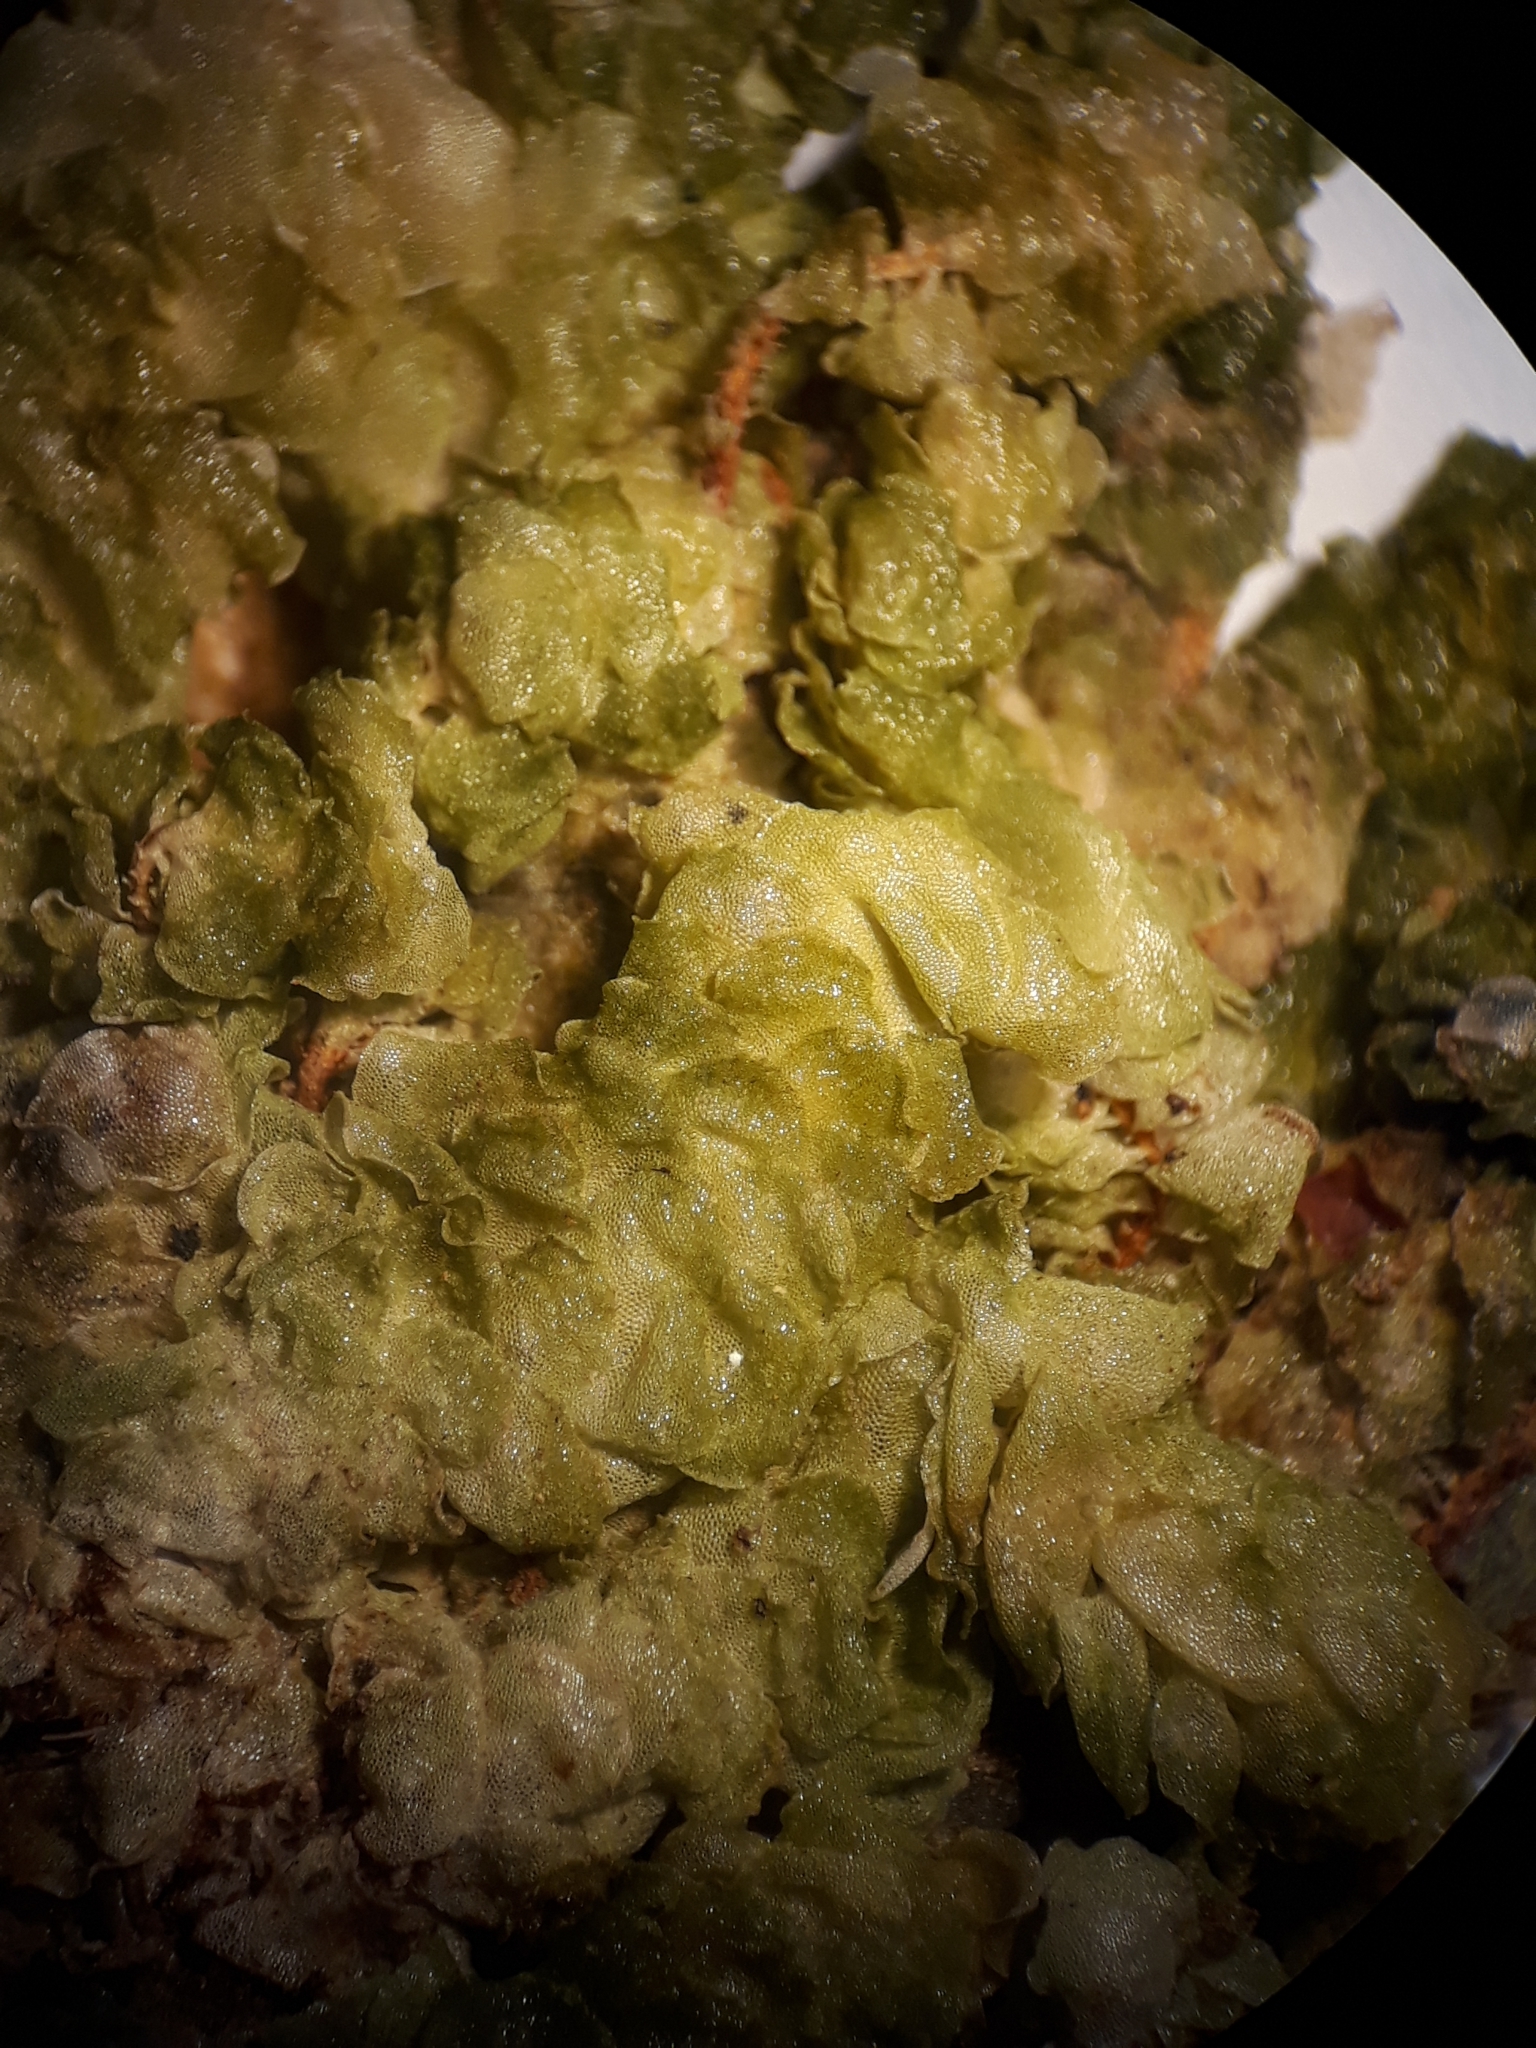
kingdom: Plantae
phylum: Bryophyta
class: Bryopsida
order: Hookeriales
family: Daltoniaceae
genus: Achrophyllum
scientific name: Achrophyllum quadrifarium
